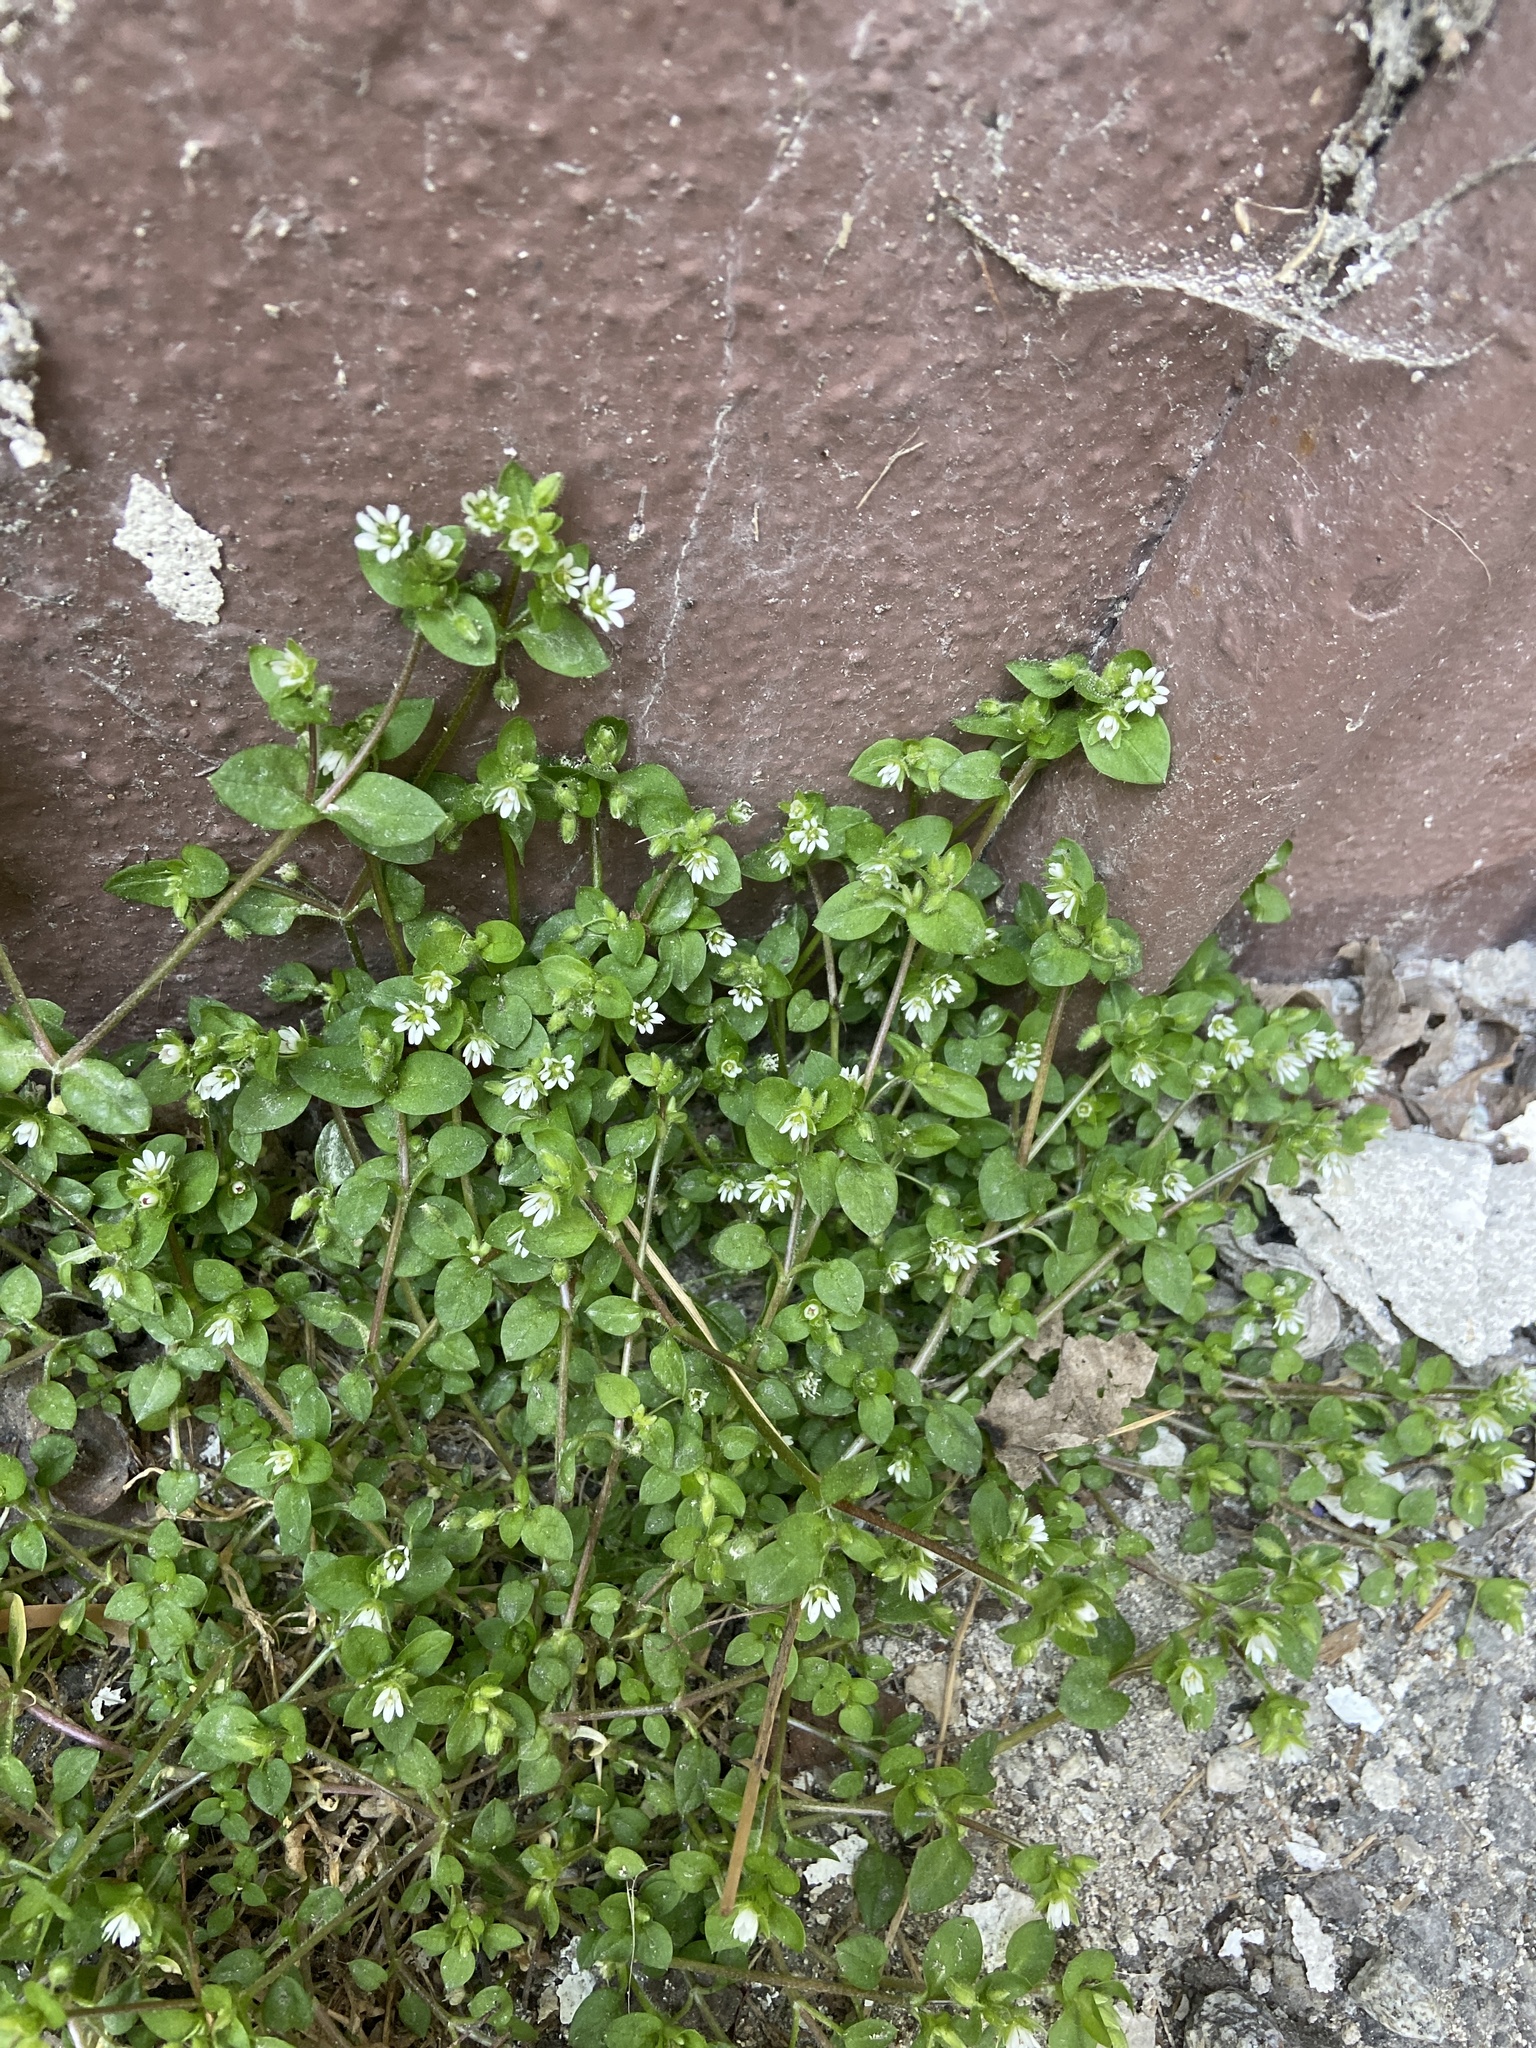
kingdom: Plantae
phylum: Tracheophyta
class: Magnoliopsida
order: Caryophyllales
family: Caryophyllaceae
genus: Stellaria
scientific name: Stellaria media
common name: Common chickweed
